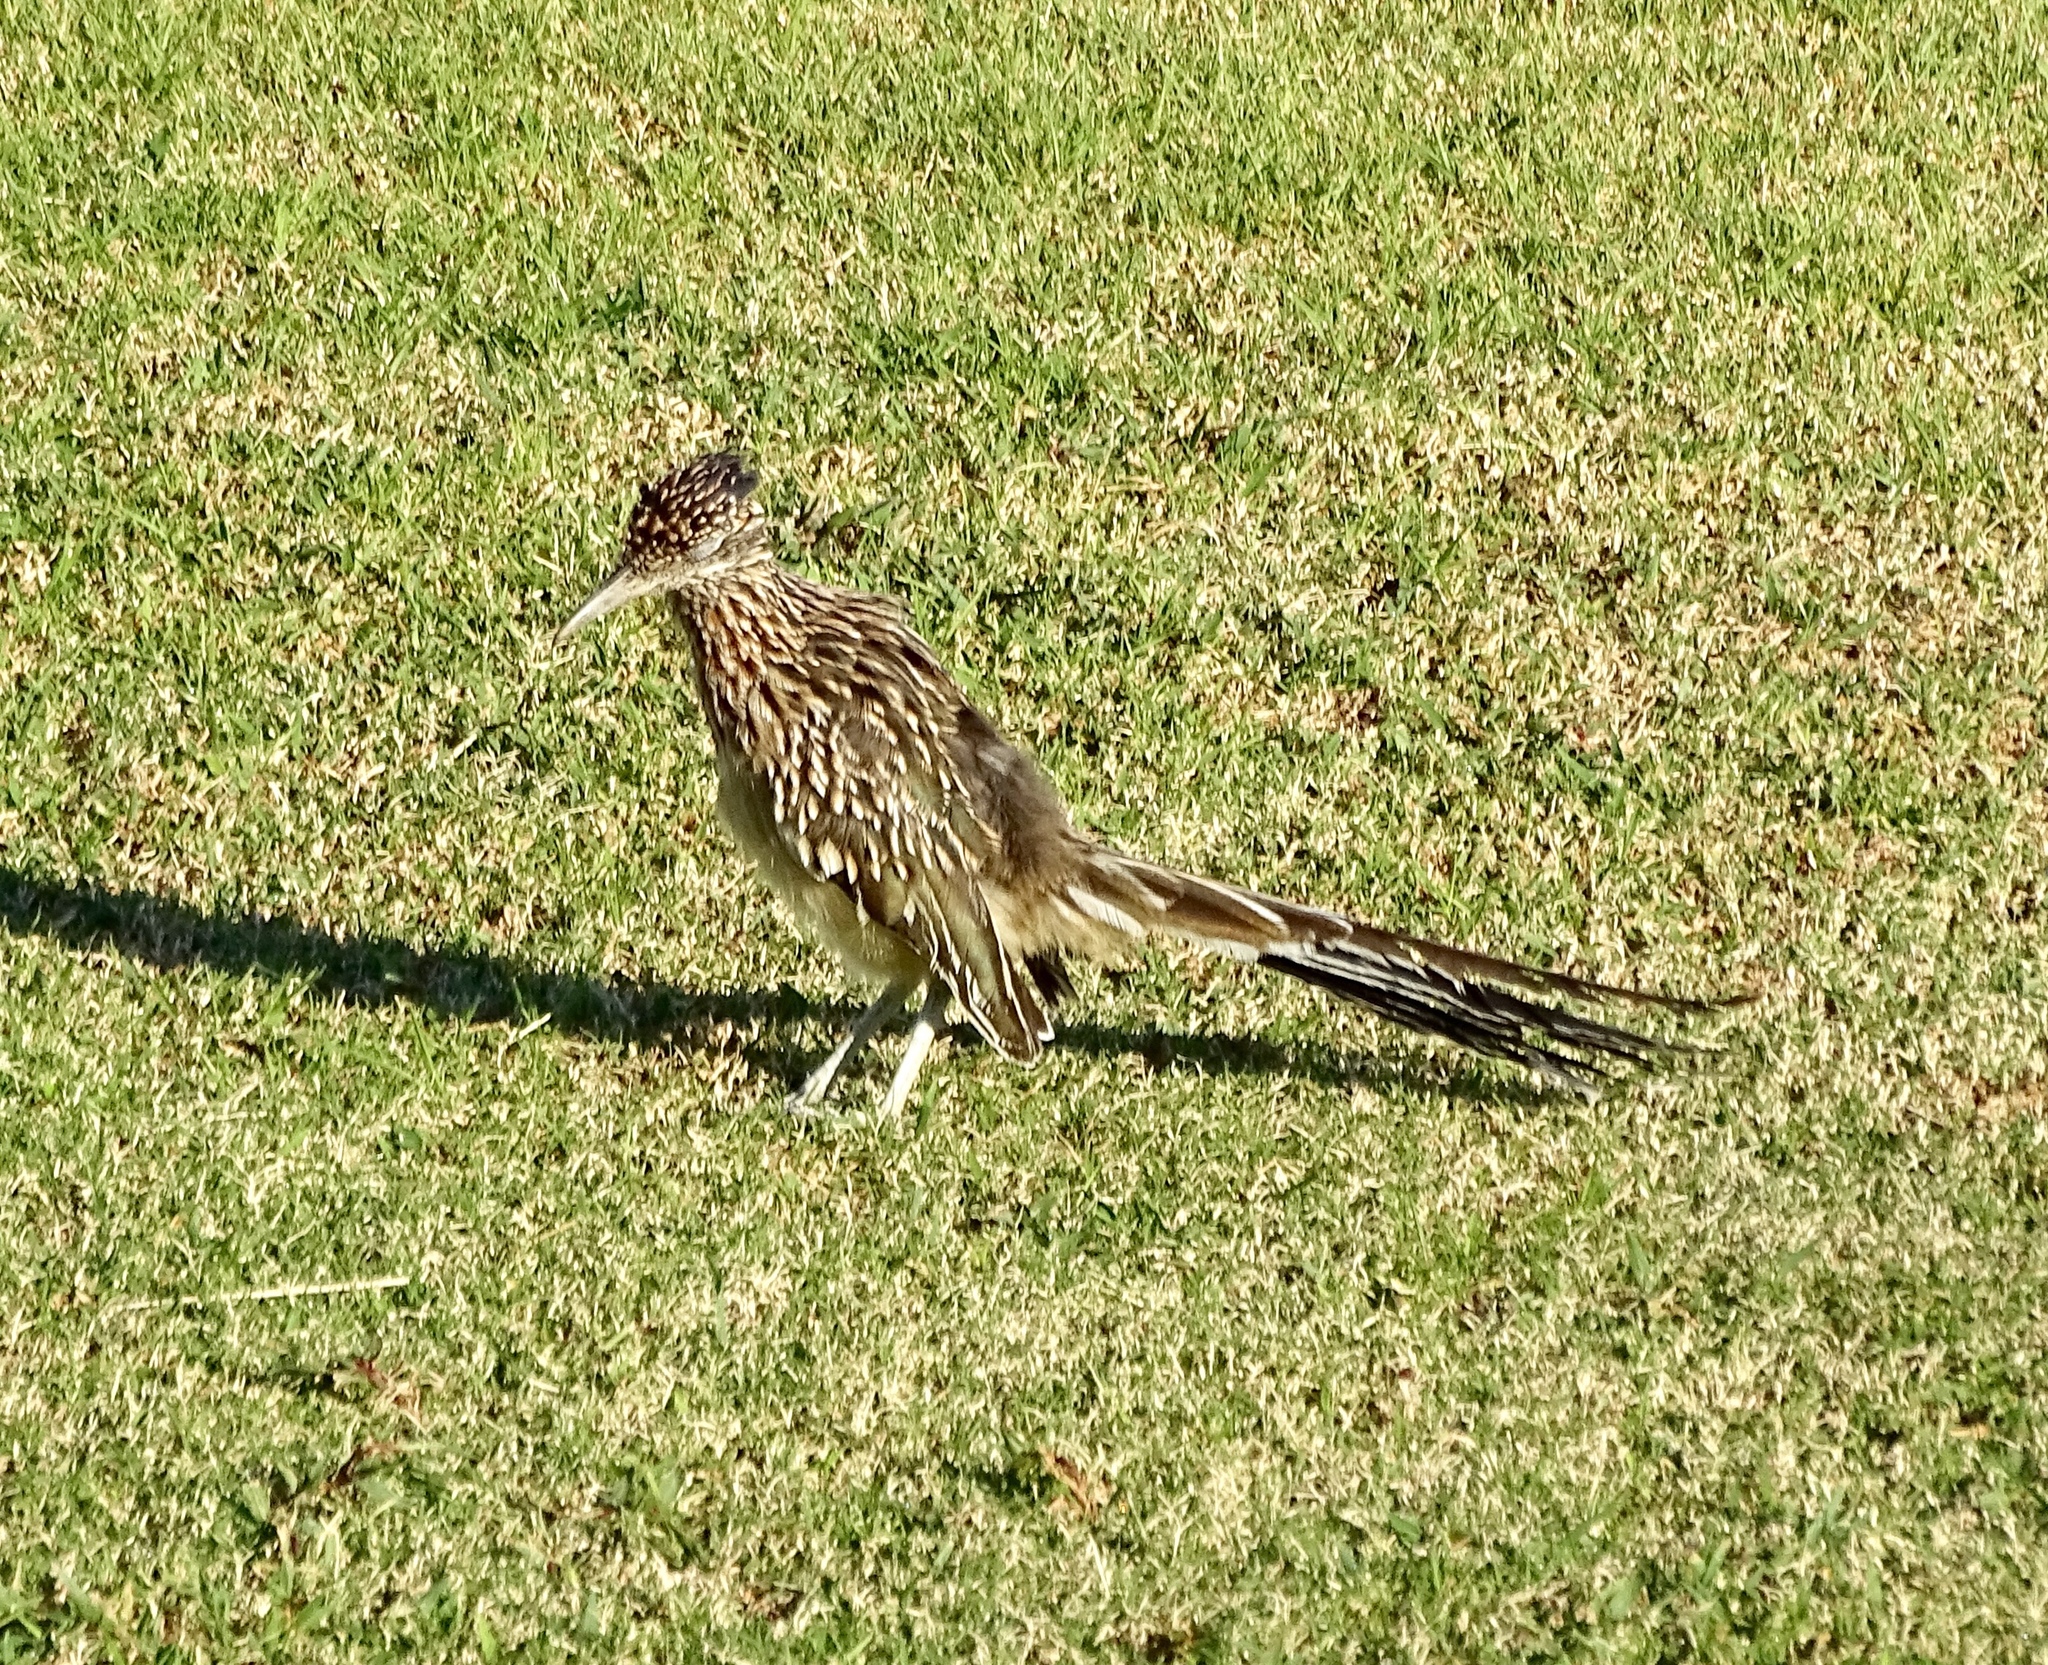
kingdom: Animalia
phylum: Chordata
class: Aves
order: Cuculiformes
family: Cuculidae
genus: Geococcyx
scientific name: Geococcyx californianus
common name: Greater roadrunner
